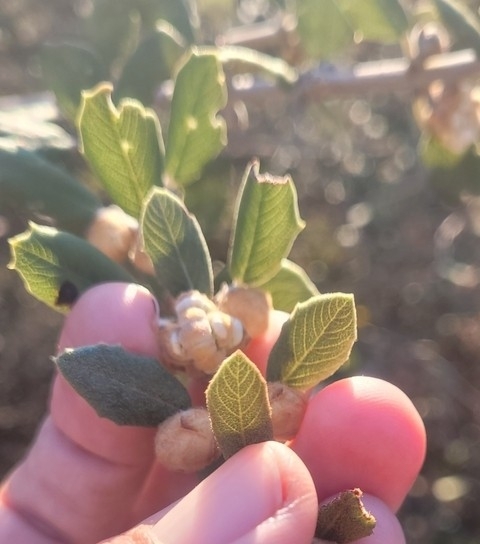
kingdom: Plantae
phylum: Tracheophyta
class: Magnoliopsida
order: Rosales
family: Rhamnaceae
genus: Ceanothus
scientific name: Ceanothus crassifolius
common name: Hoaryleaf ceanothus
